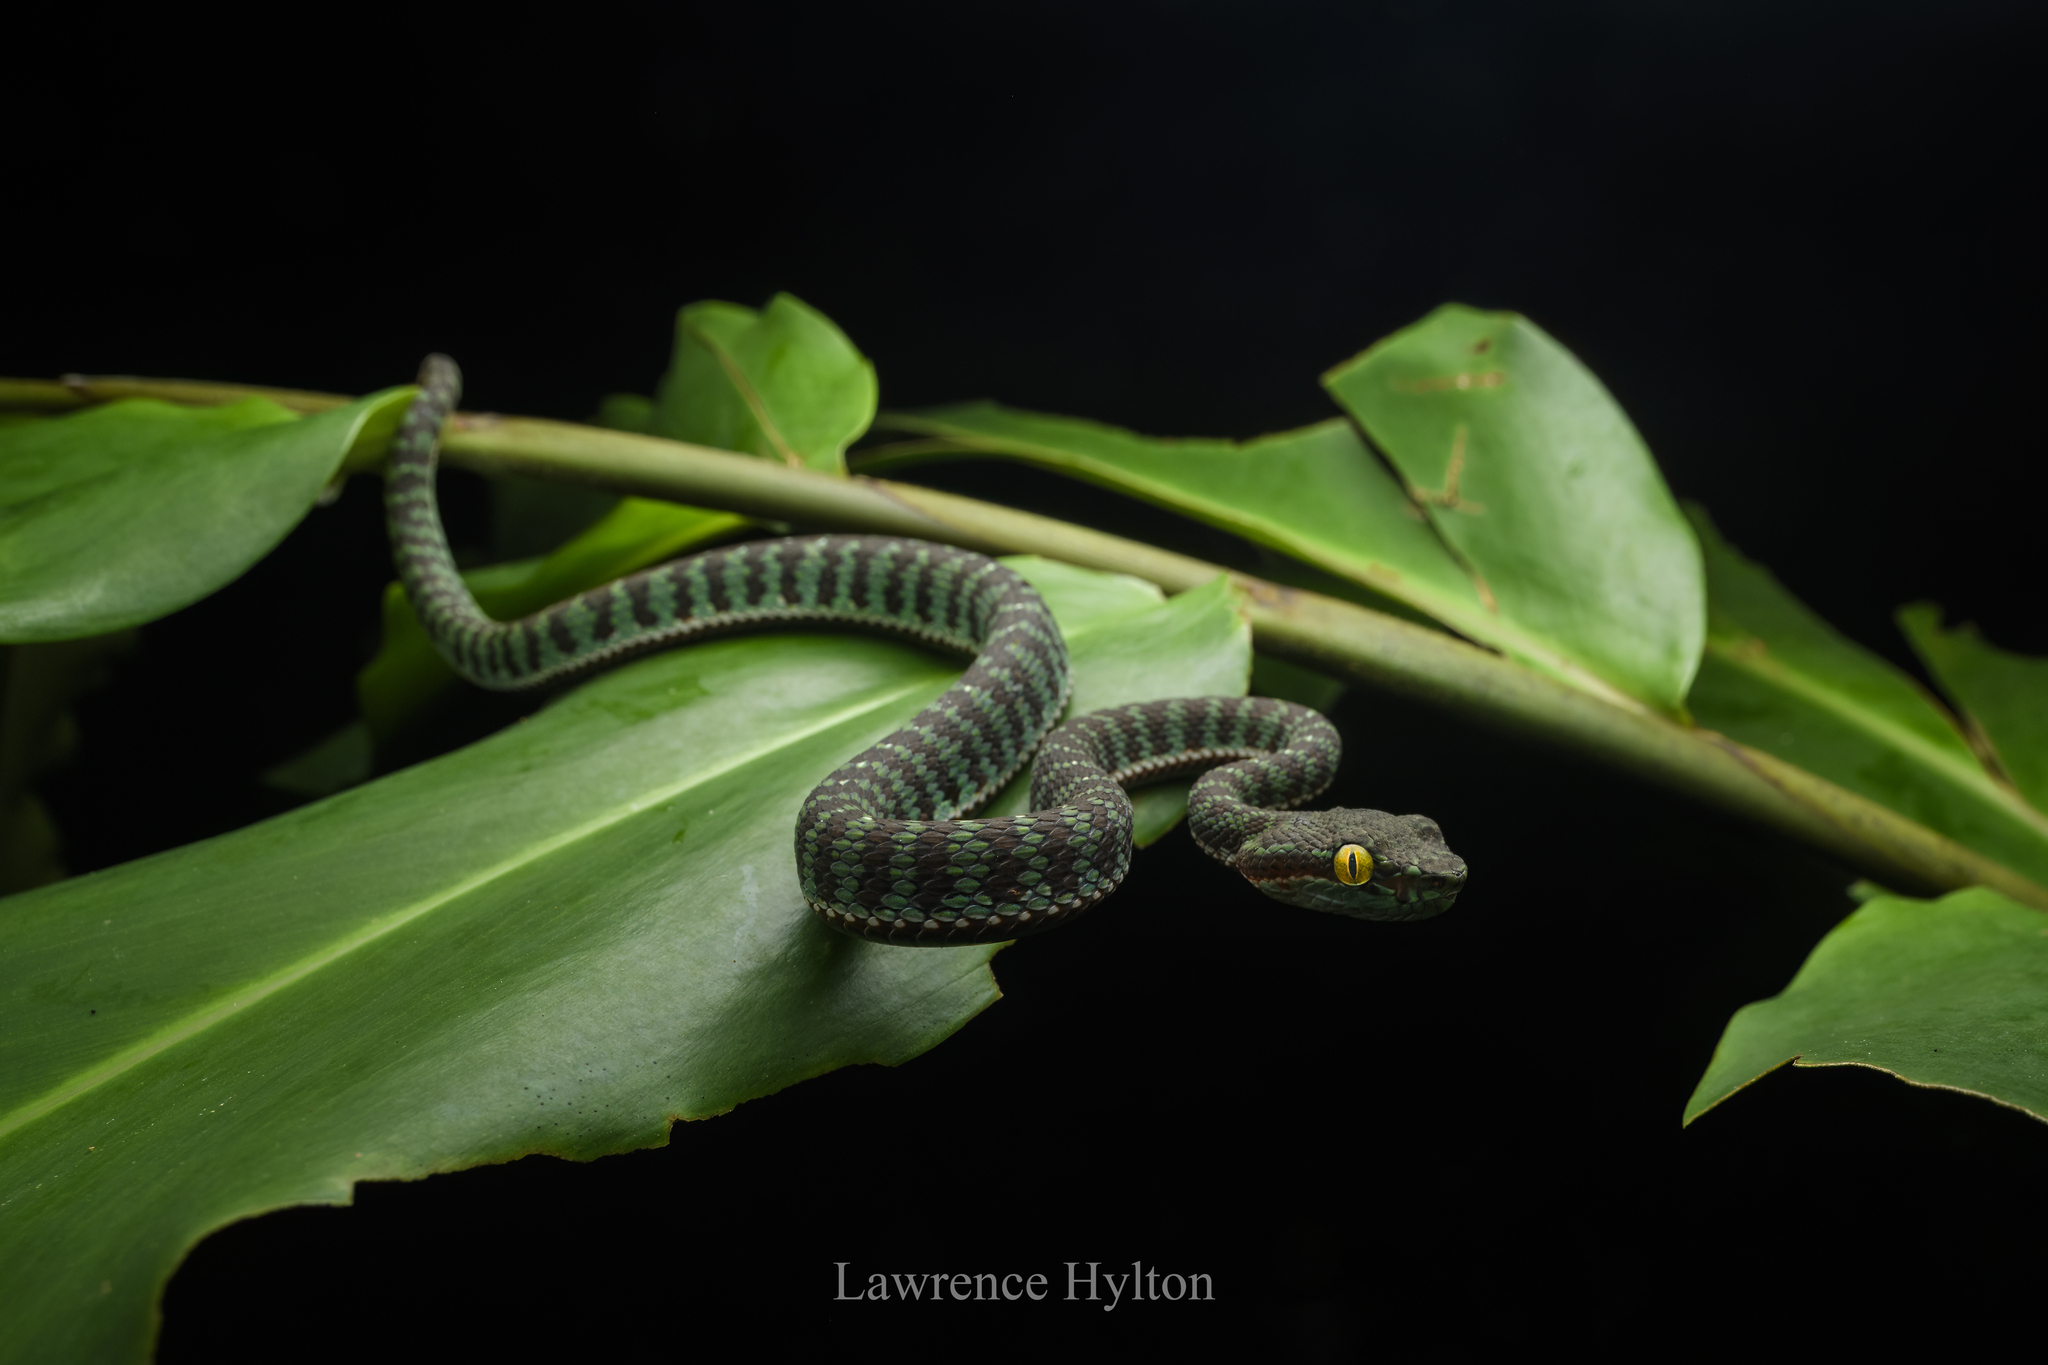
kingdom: Animalia
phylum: Chordata
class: Squamata
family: Viperidae
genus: Trimeresurus
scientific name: Trimeresurus phuketensis
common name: Phuket pitviper
